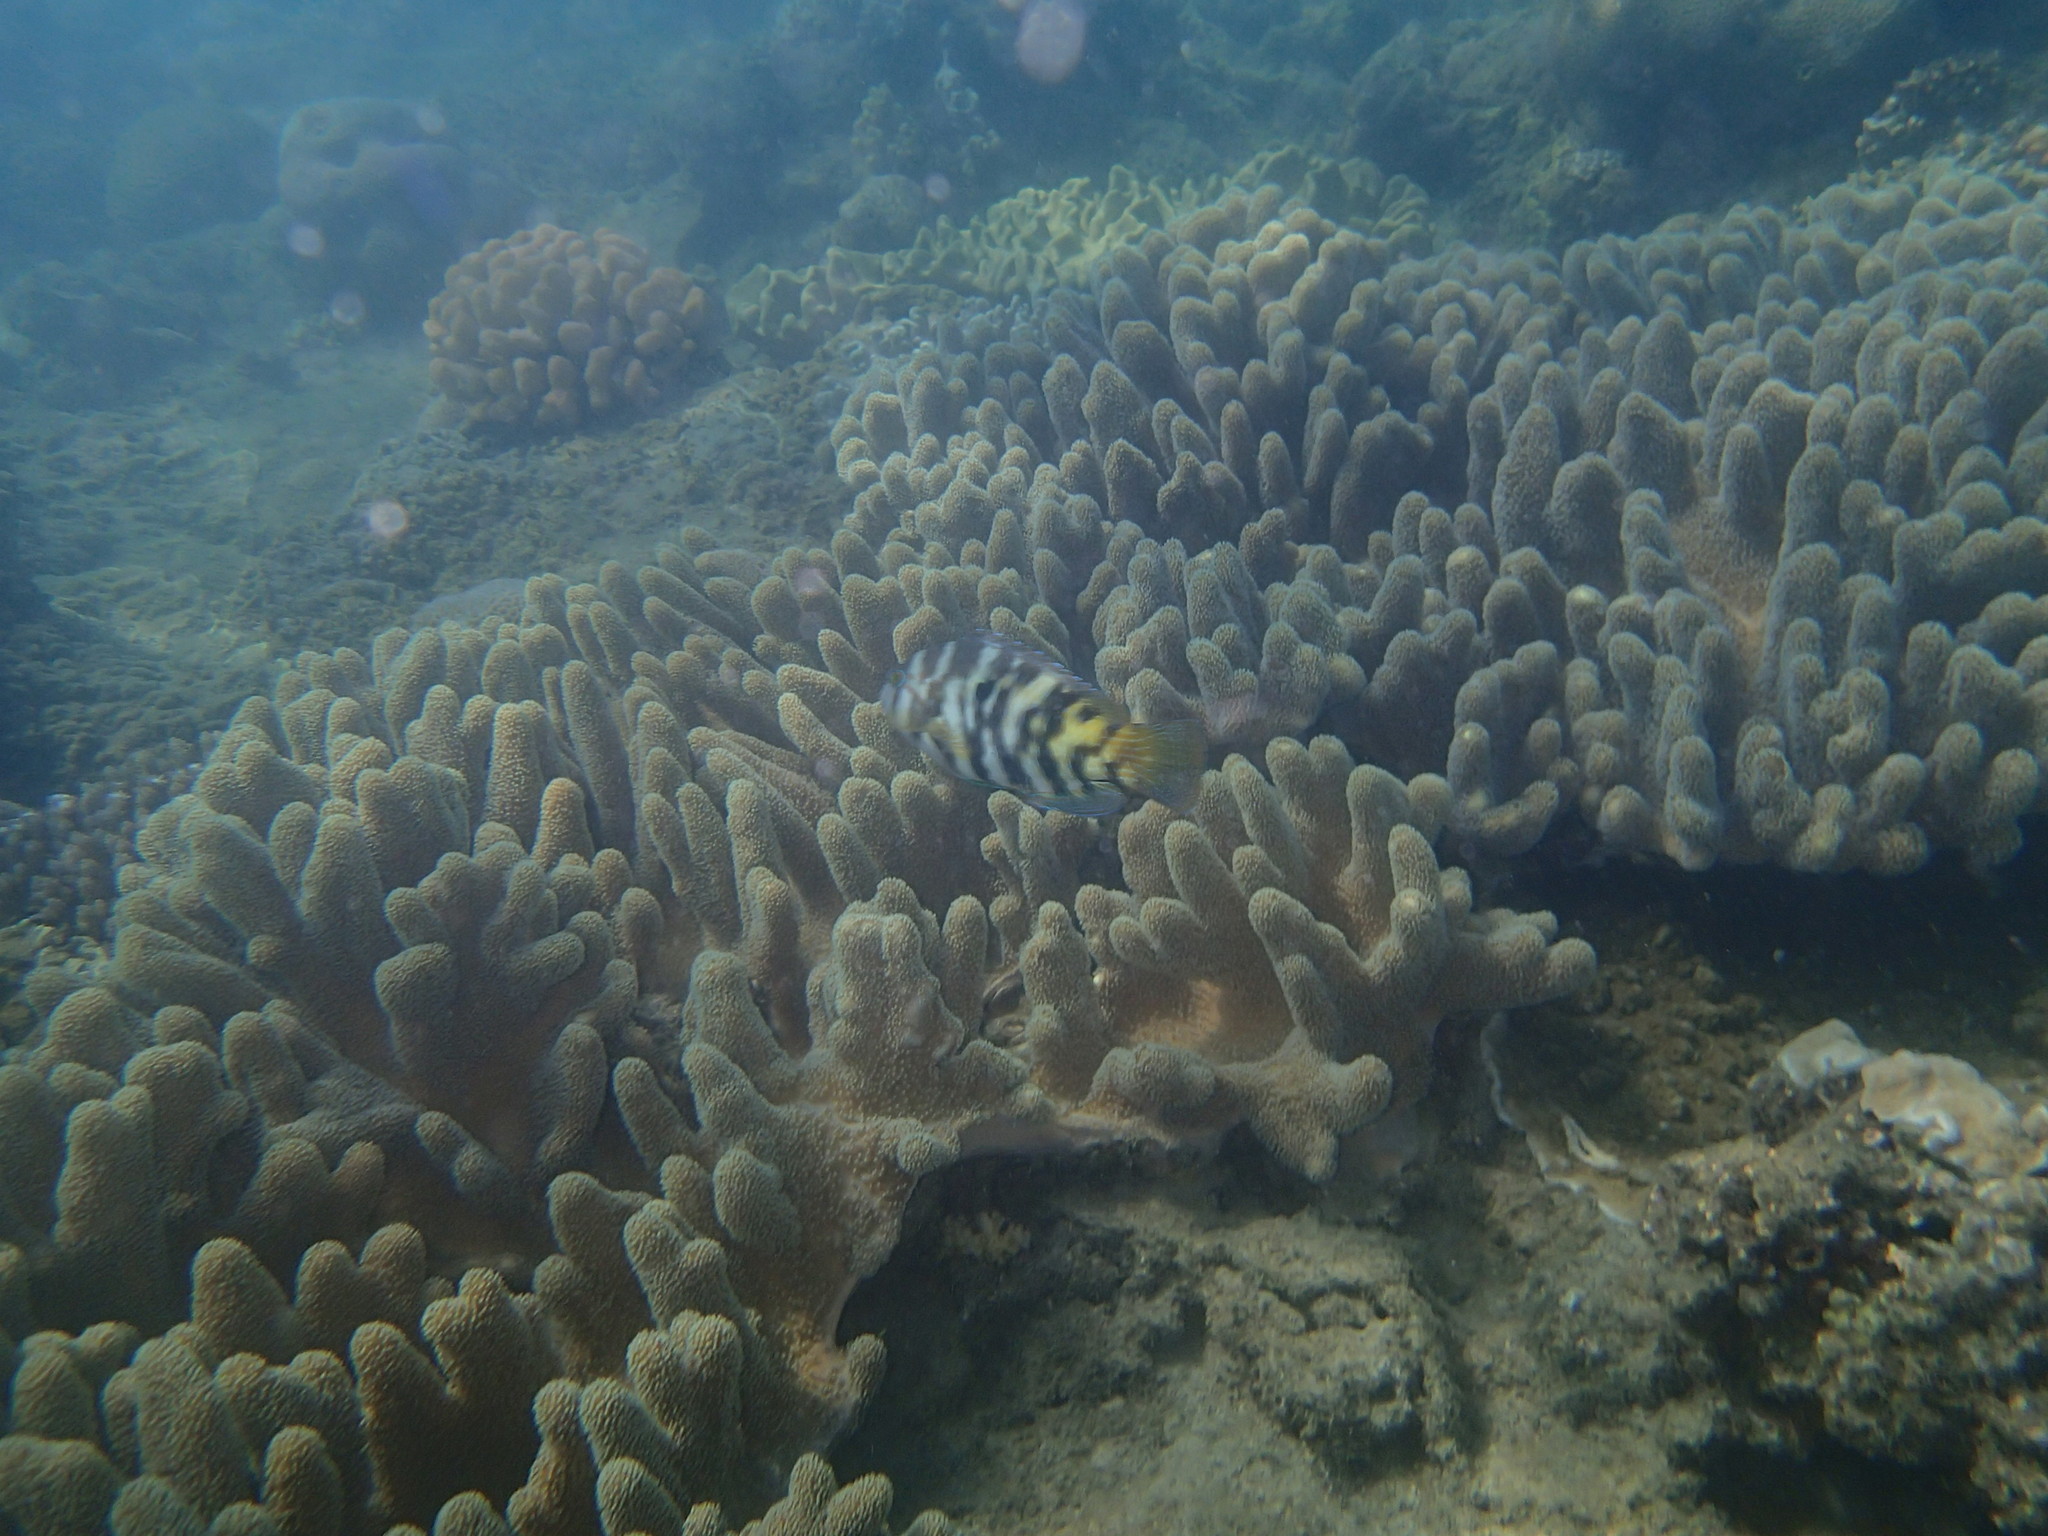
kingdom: Animalia
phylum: Chordata
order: Perciformes
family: Labridae
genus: Choerodon
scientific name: Choerodon graphicus
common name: Graphic tuskfish
